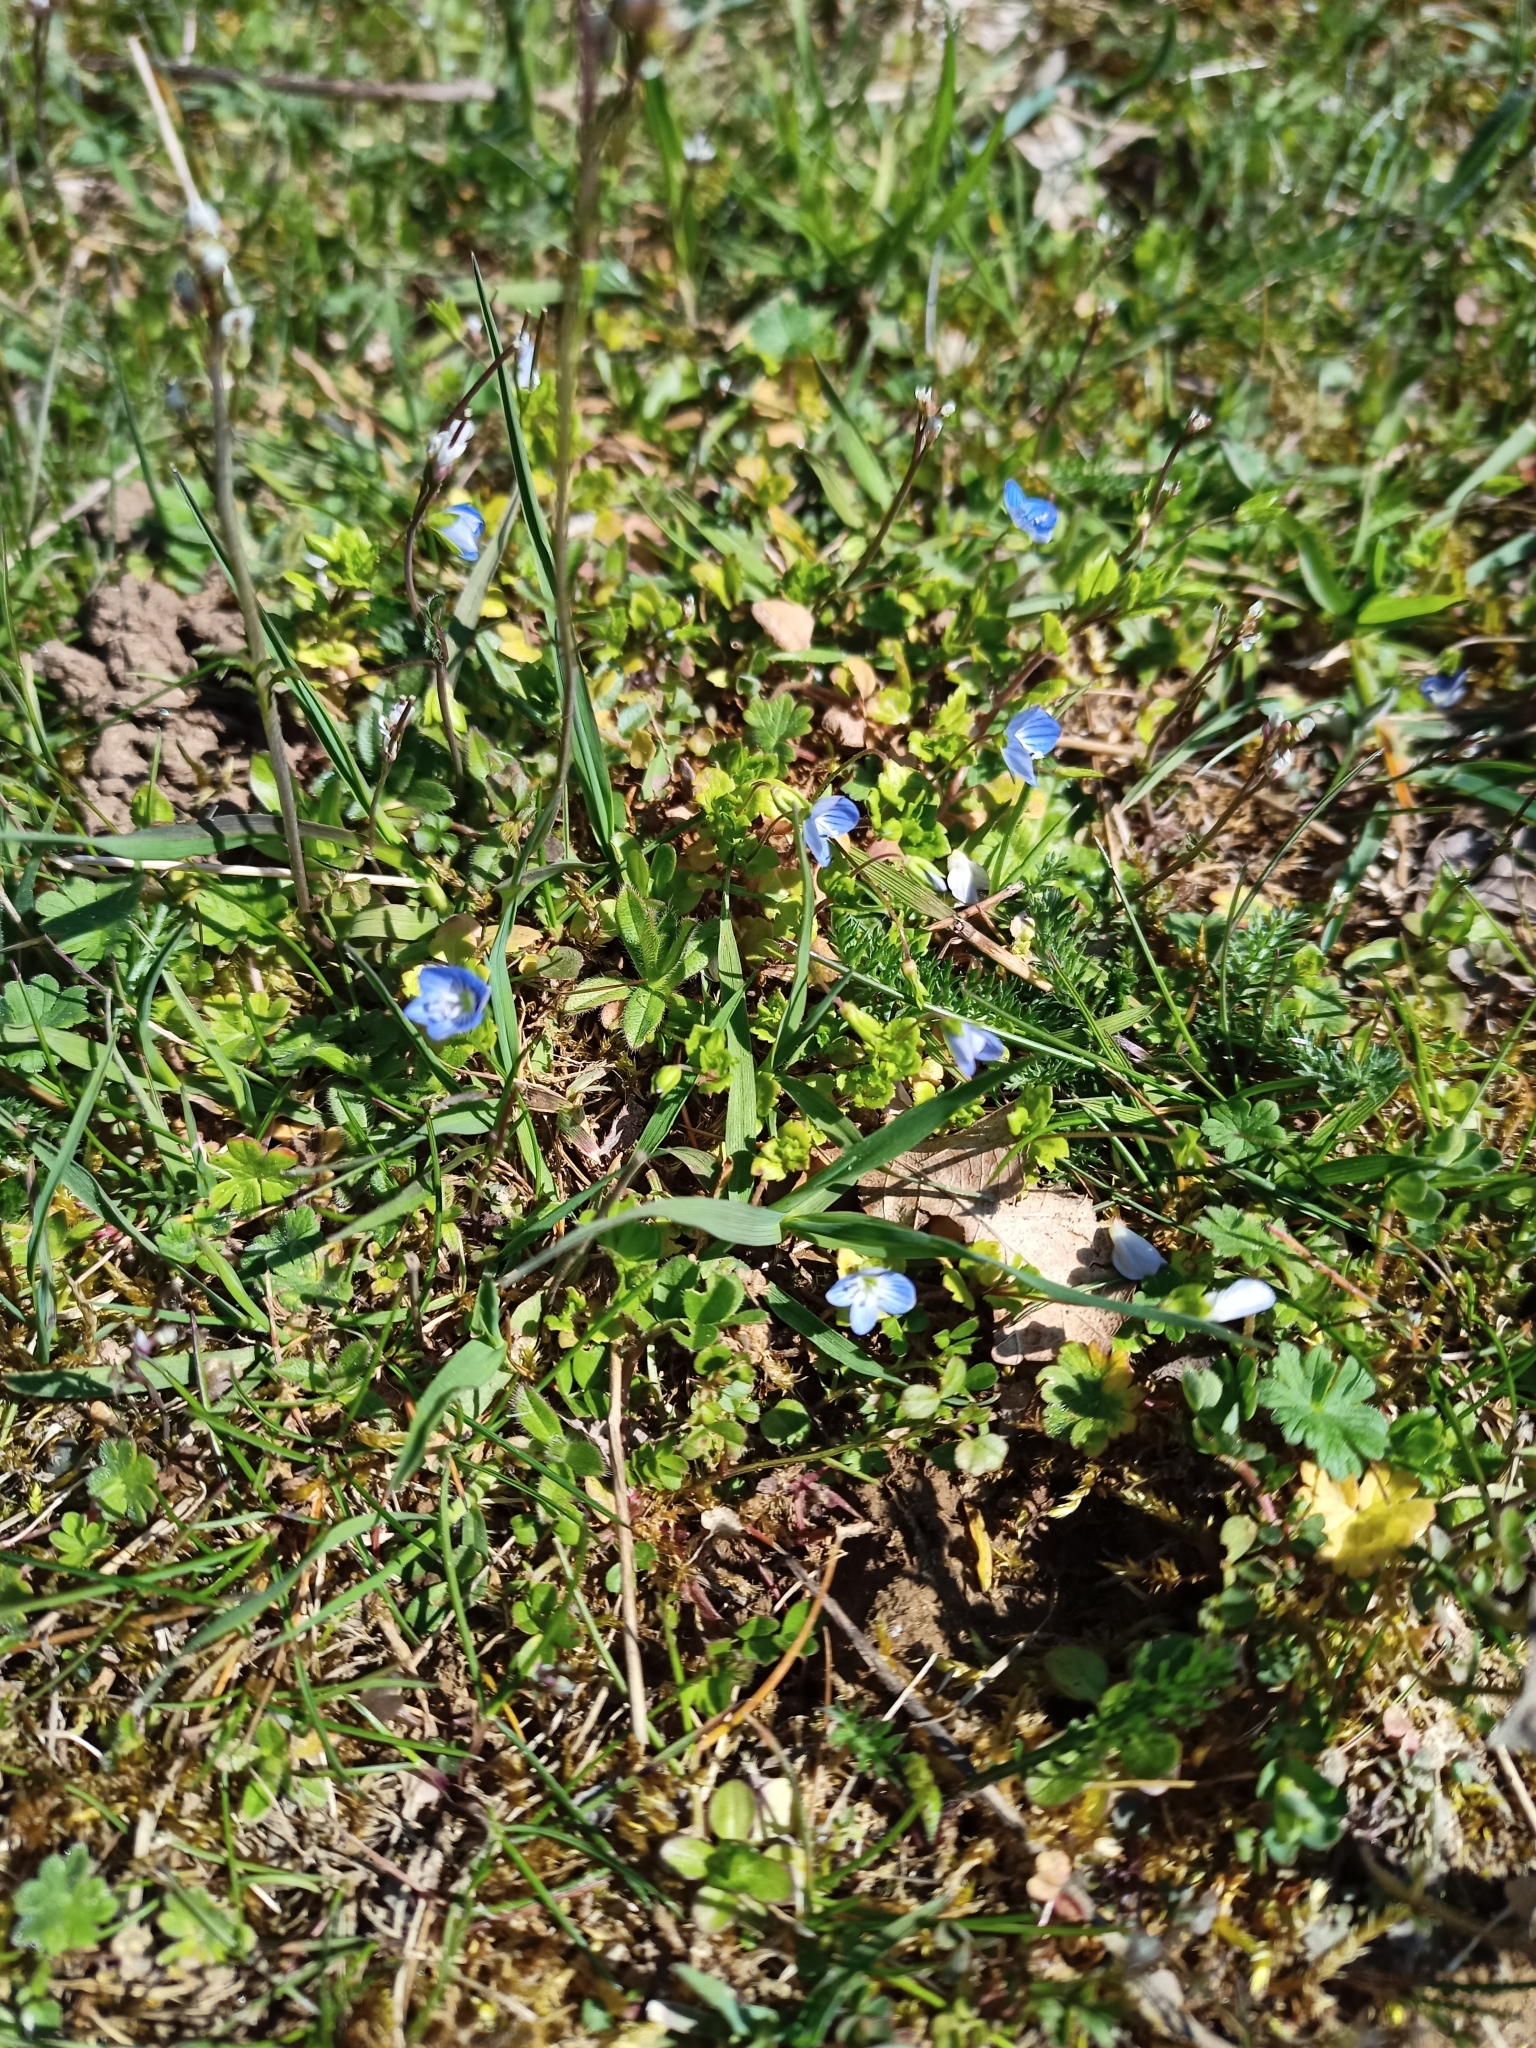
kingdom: Plantae
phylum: Tracheophyta
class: Magnoliopsida
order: Lamiales
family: Plantaginaceae
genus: Veronica
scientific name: Veronica persica
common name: Common field-speedwell
